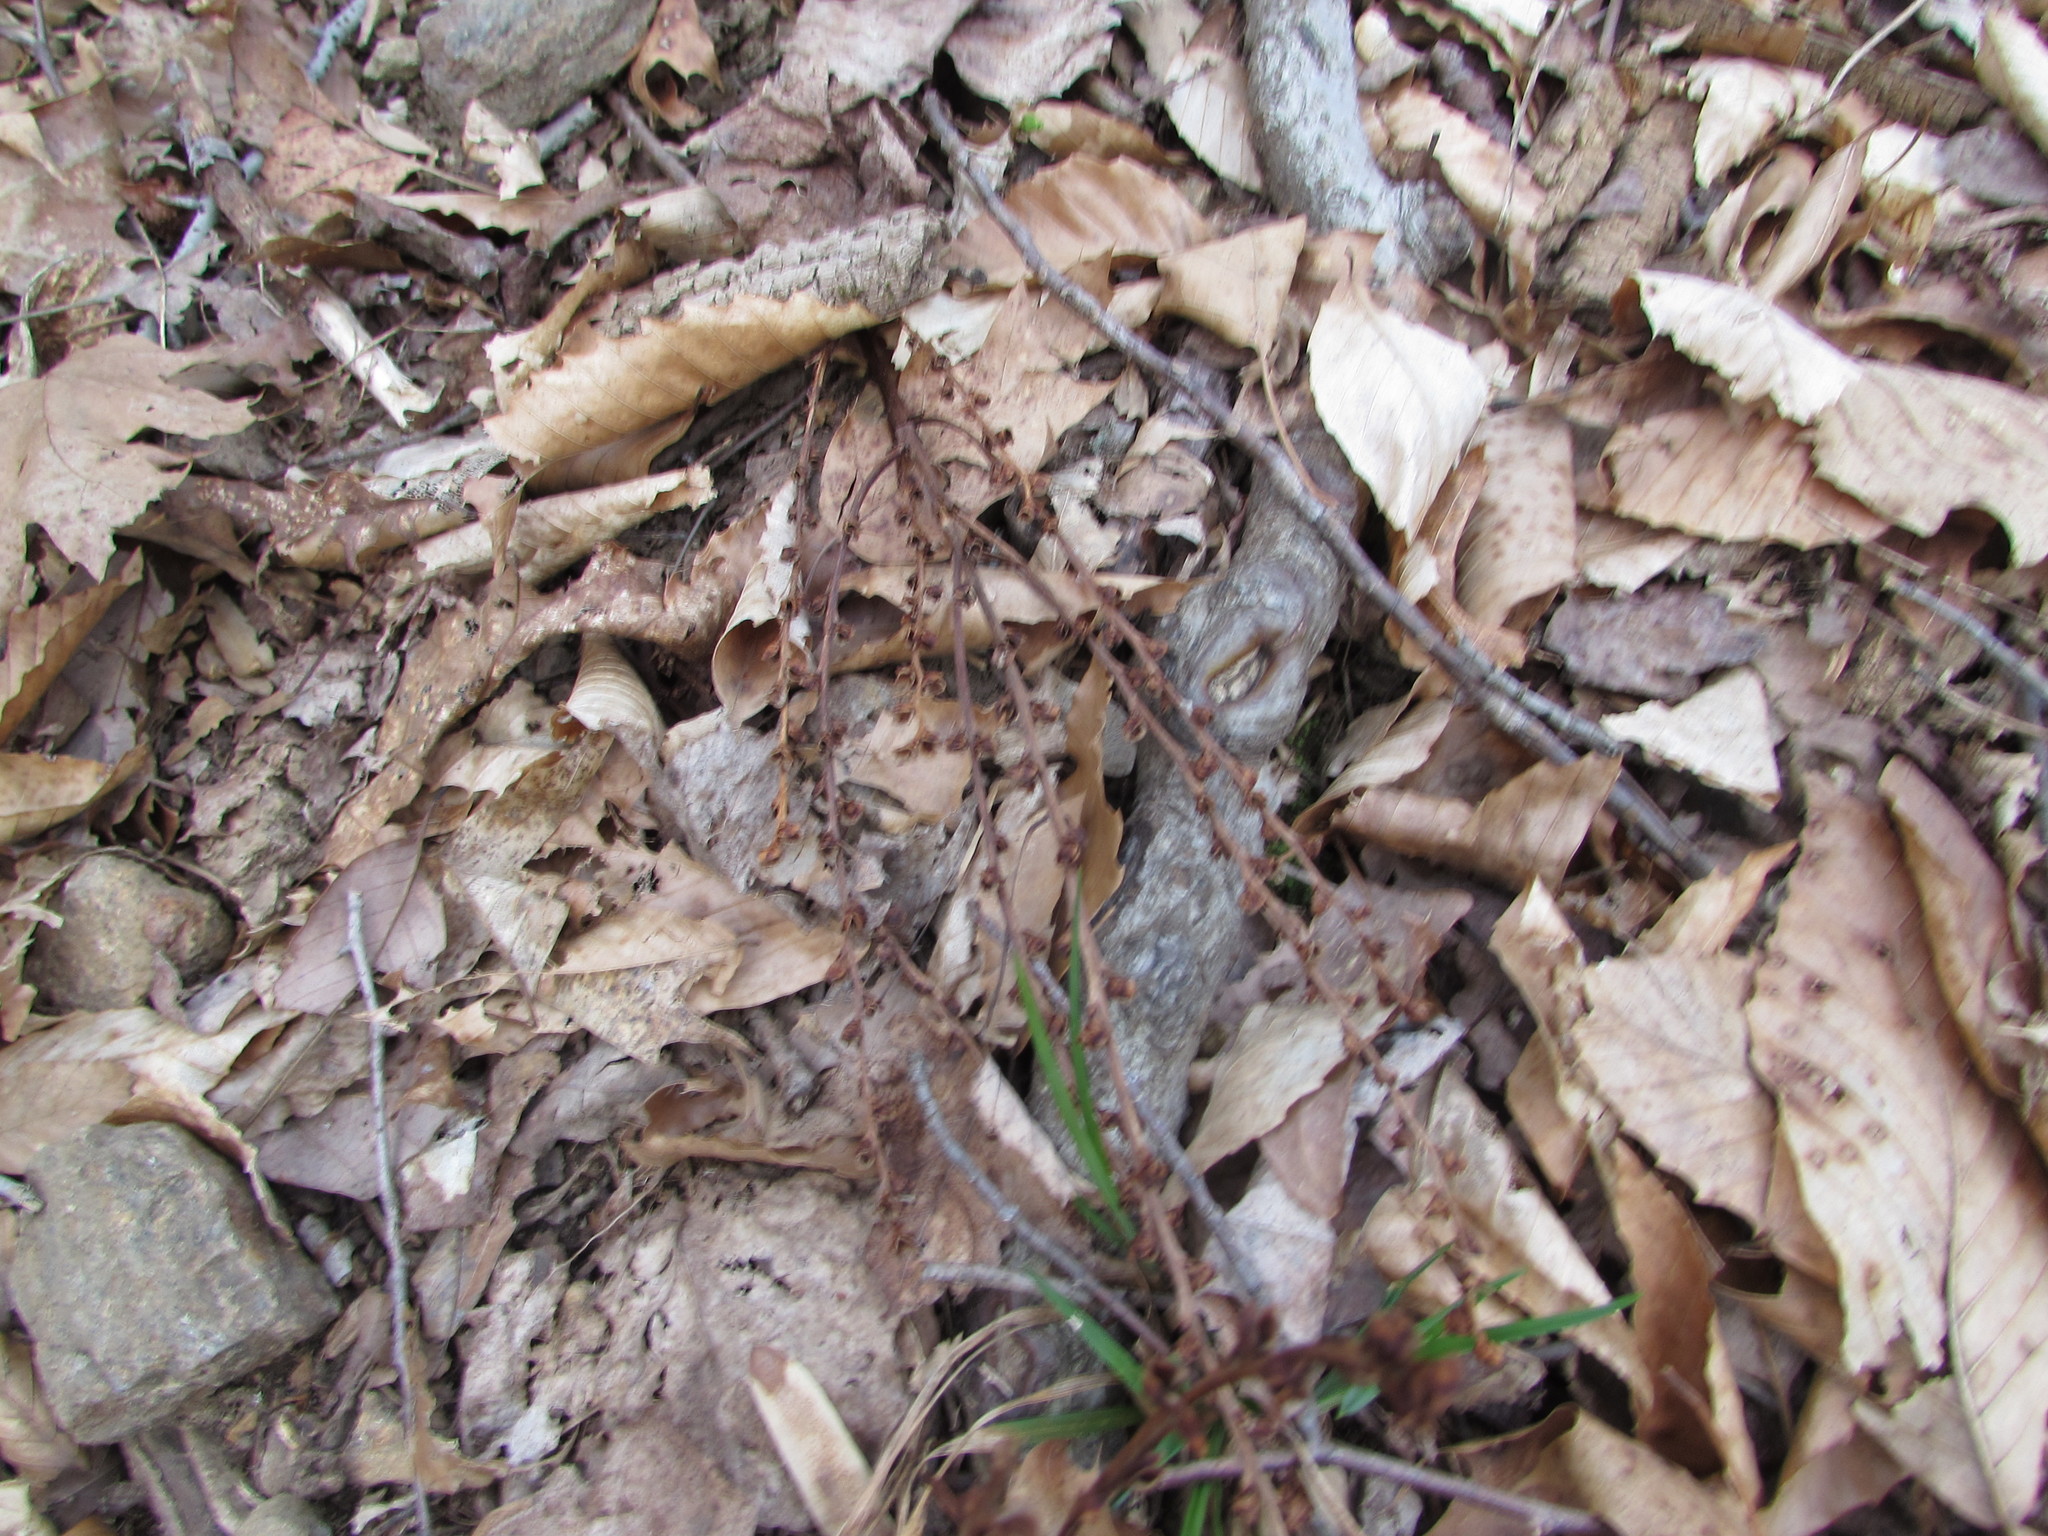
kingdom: Plantae
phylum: Tracheophyta
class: Magnoliopsida
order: Lamiales
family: Orobanchaceae
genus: Epifagus
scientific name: Epifagus virginiana
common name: Beechdrops
